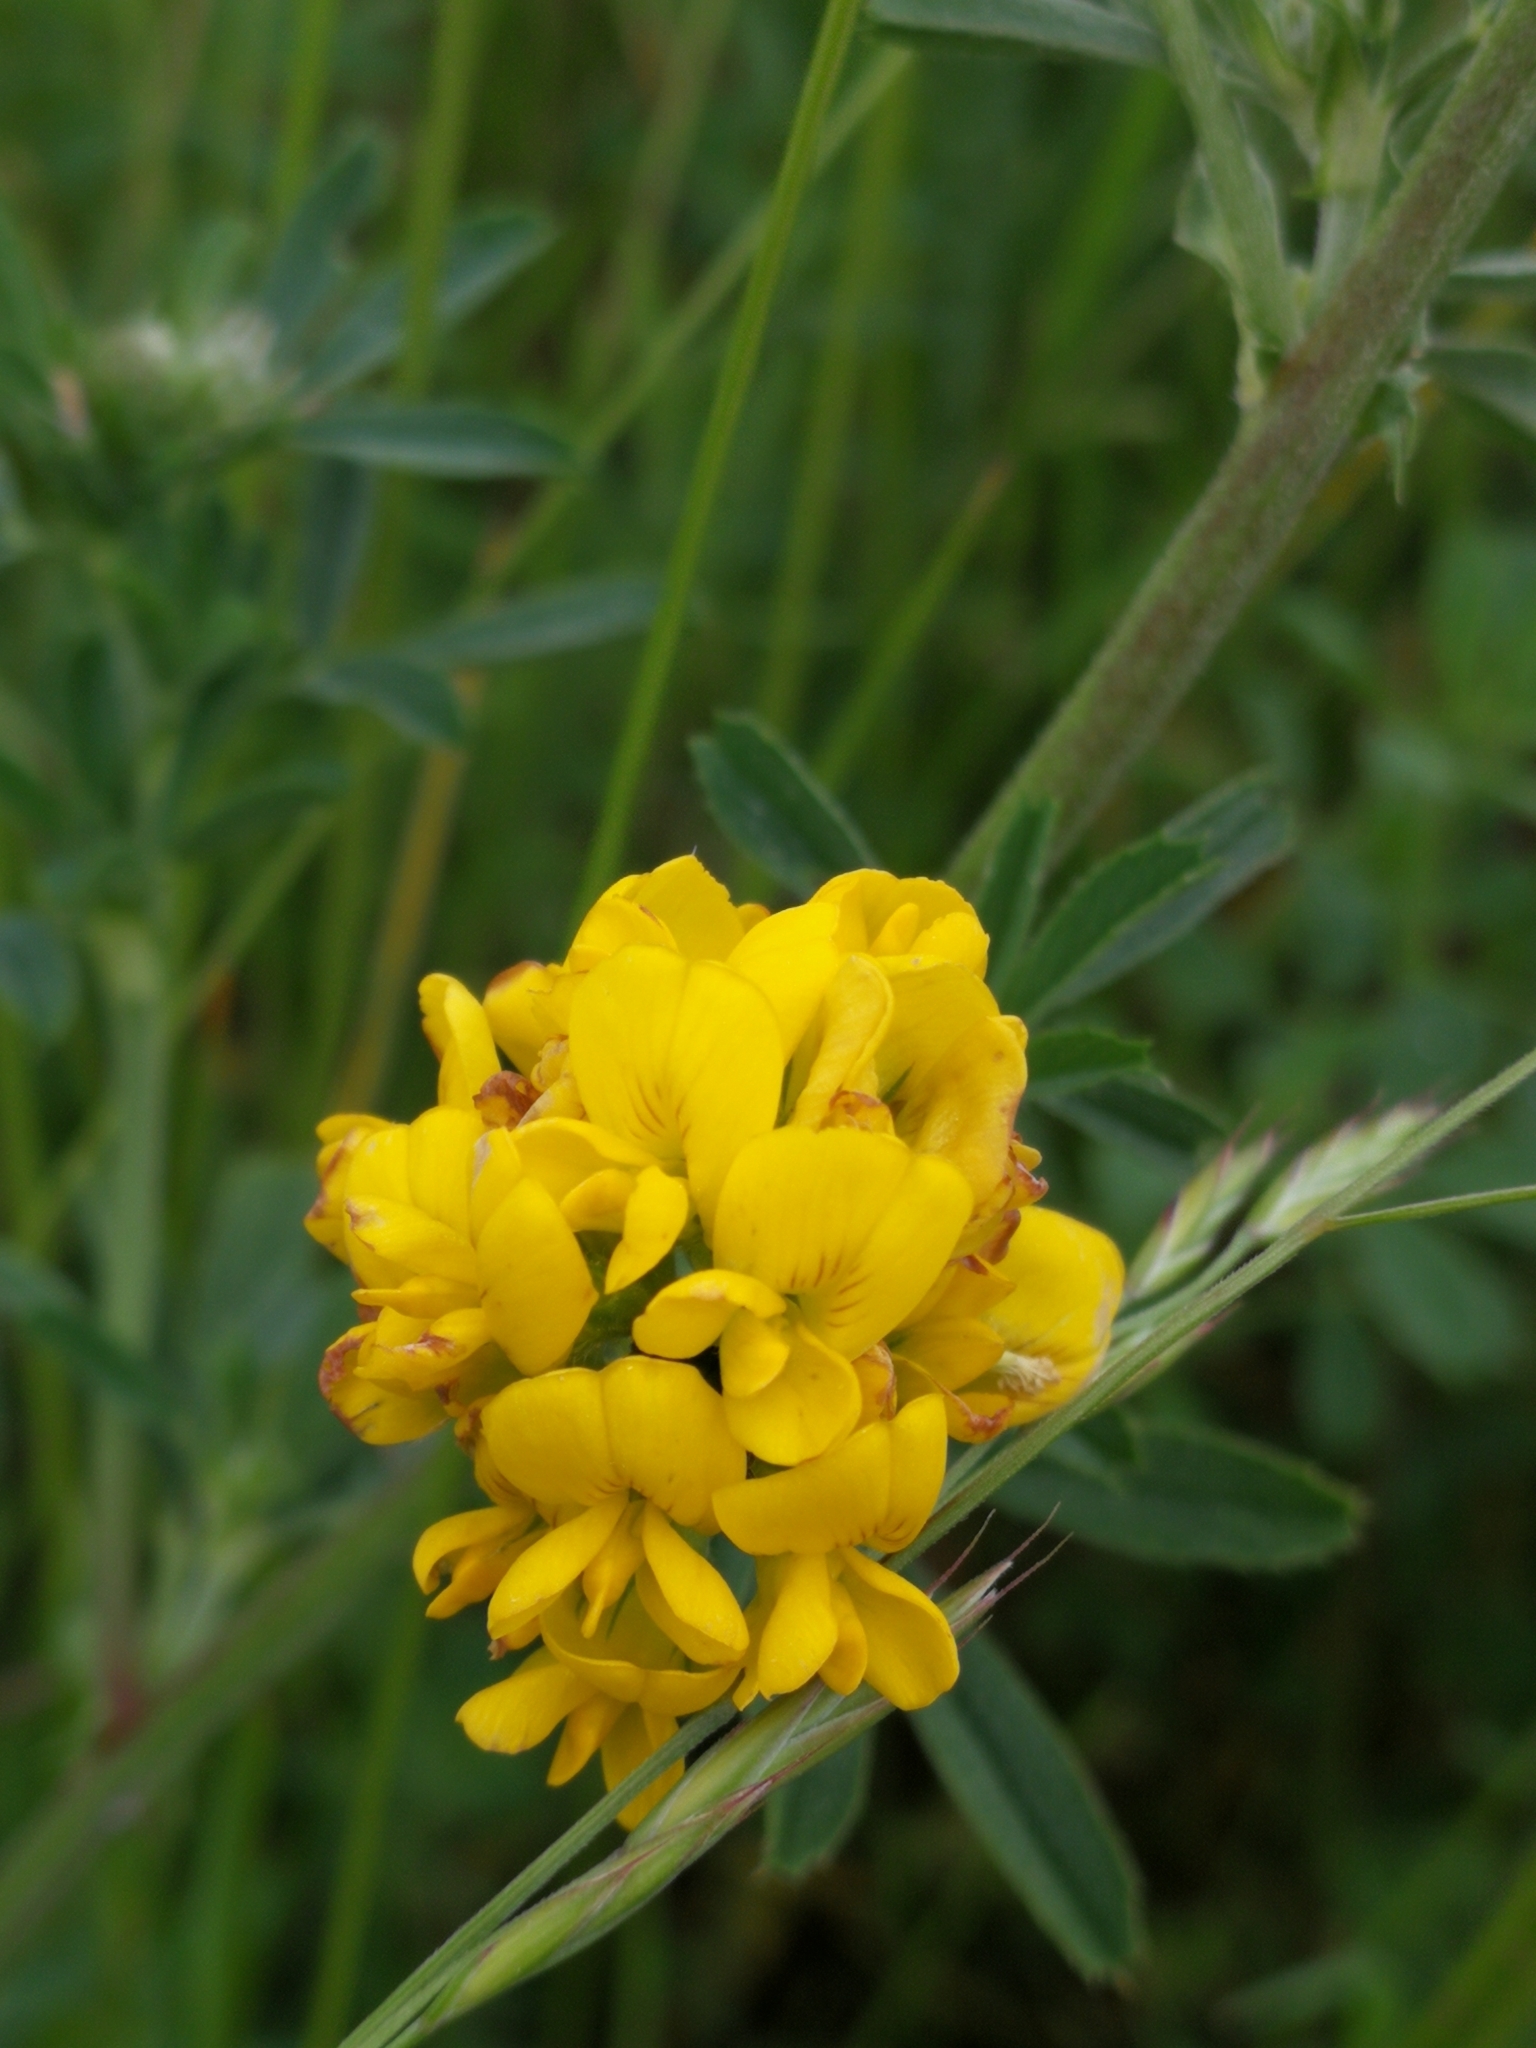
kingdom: Plantae
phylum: Tracheophyta
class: Magnoliopsida
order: Fabales
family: Fabaceae
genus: Medicago
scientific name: Medicago falcata
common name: Sickle medick
